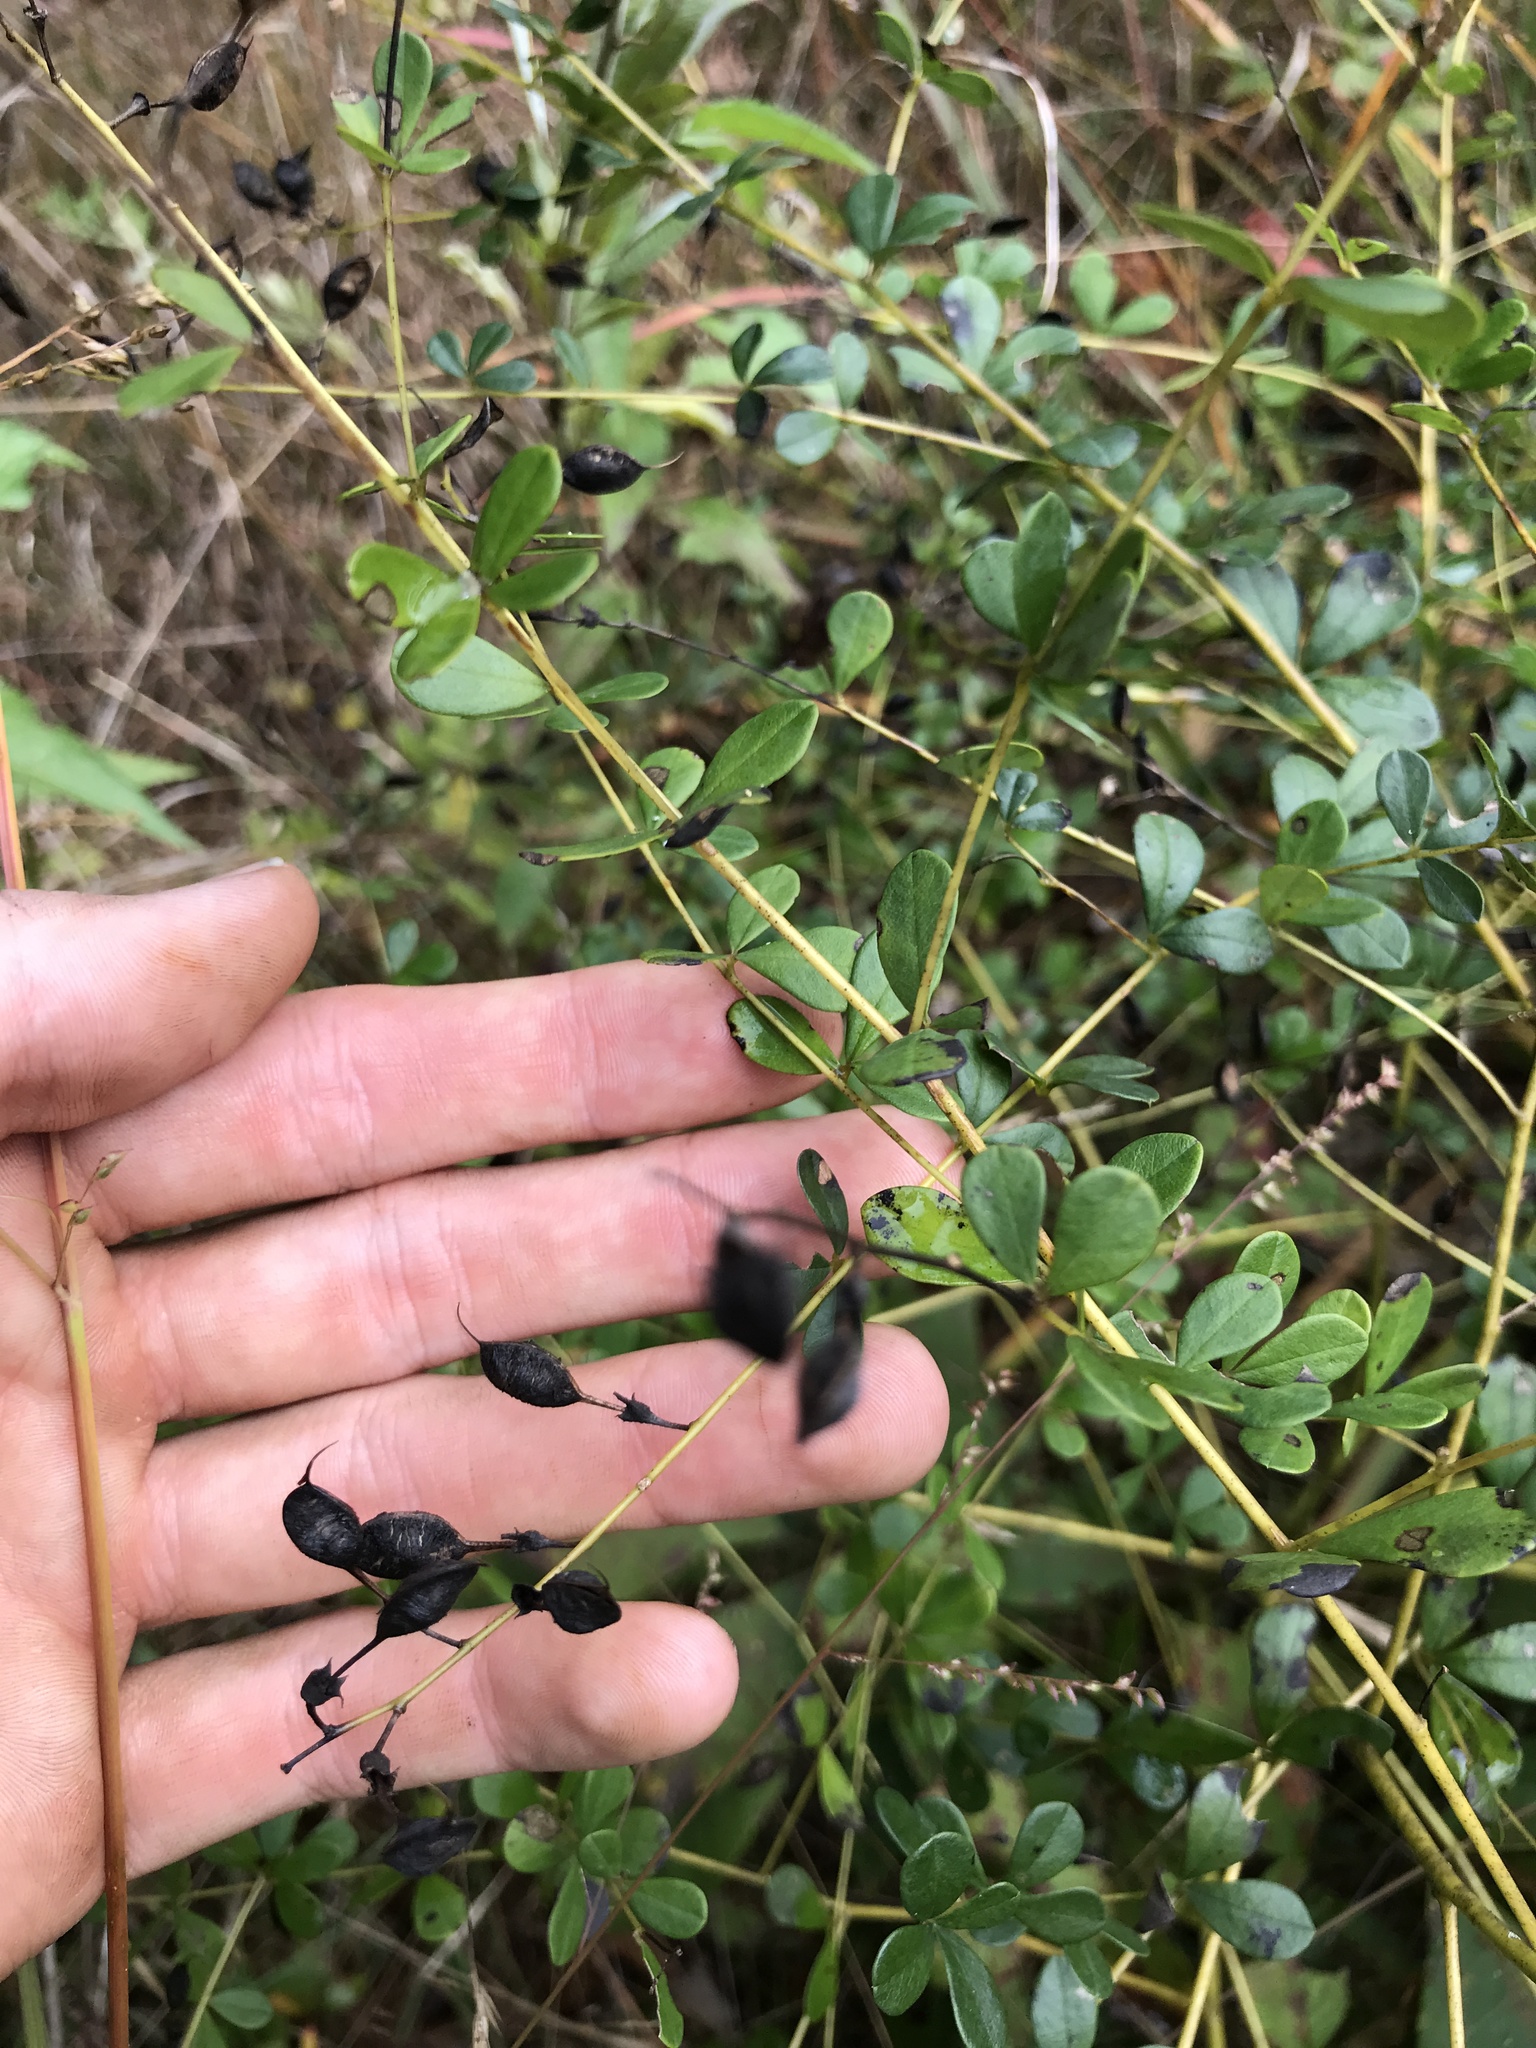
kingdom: Plantae
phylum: Tracheophyta
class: Magnoliopsida
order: Fabales
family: Fabaceae
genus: Baptisia
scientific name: Baptisia tinctoria
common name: Wild indigo
